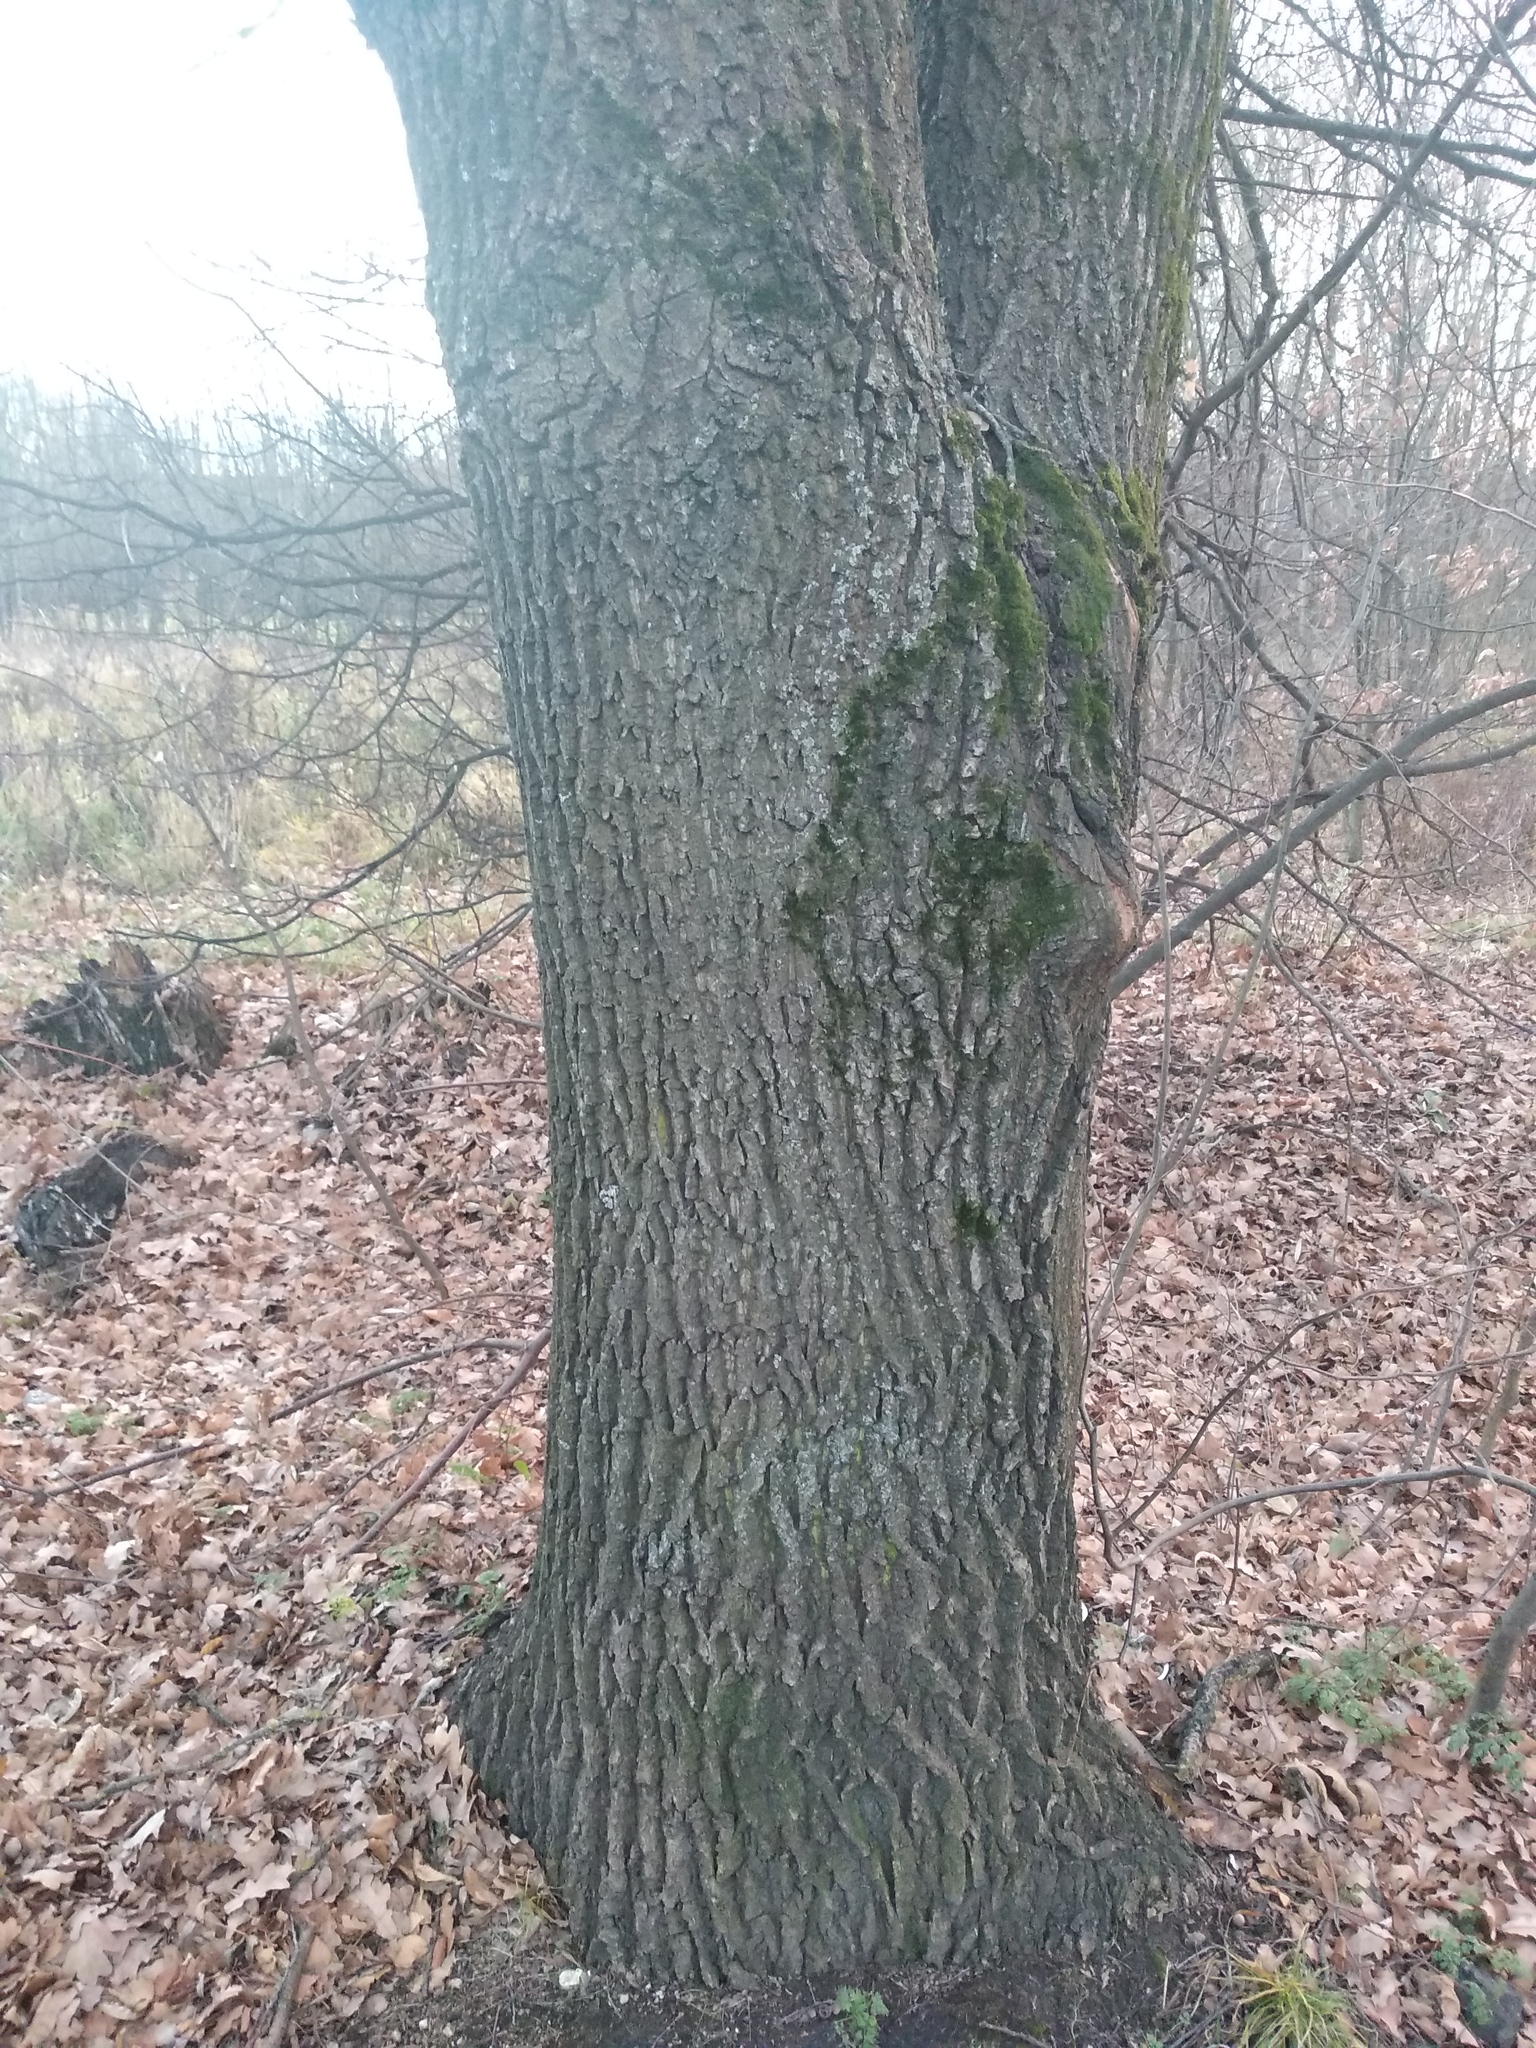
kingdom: Plantae
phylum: Tracheophyta
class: Magnoliopsida
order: Fagales
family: Fagaceae
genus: Quercus
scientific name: Quercus robur
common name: Pedunculate oak
